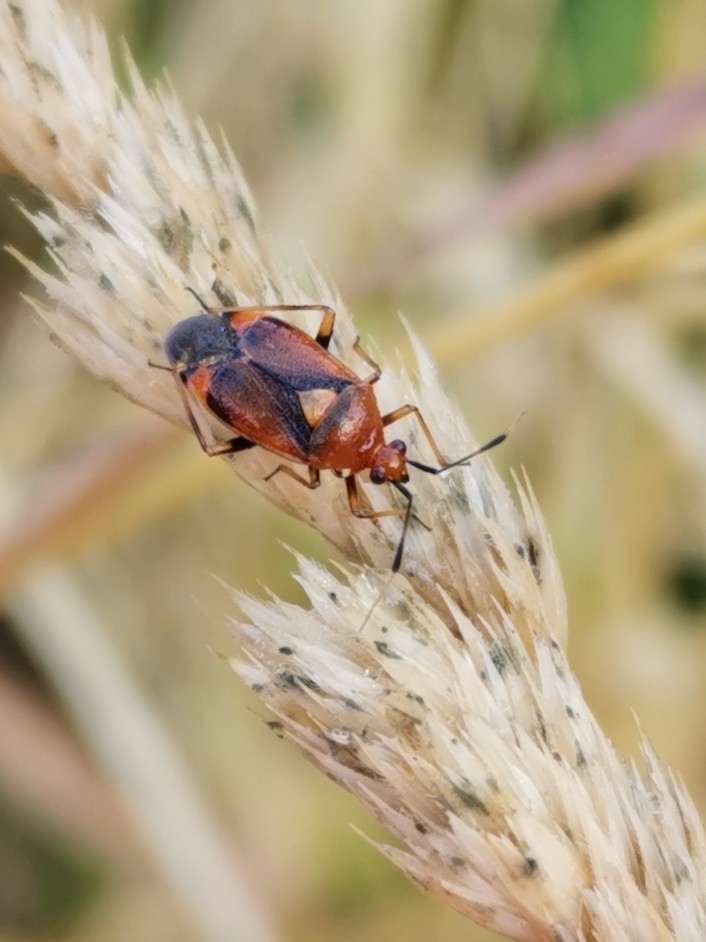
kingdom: Animalia
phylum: Arthropoda
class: Insecta
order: Hemiptera
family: Miridae
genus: Deraeocoris
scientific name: Deraeocoris ruber
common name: Plant bug
